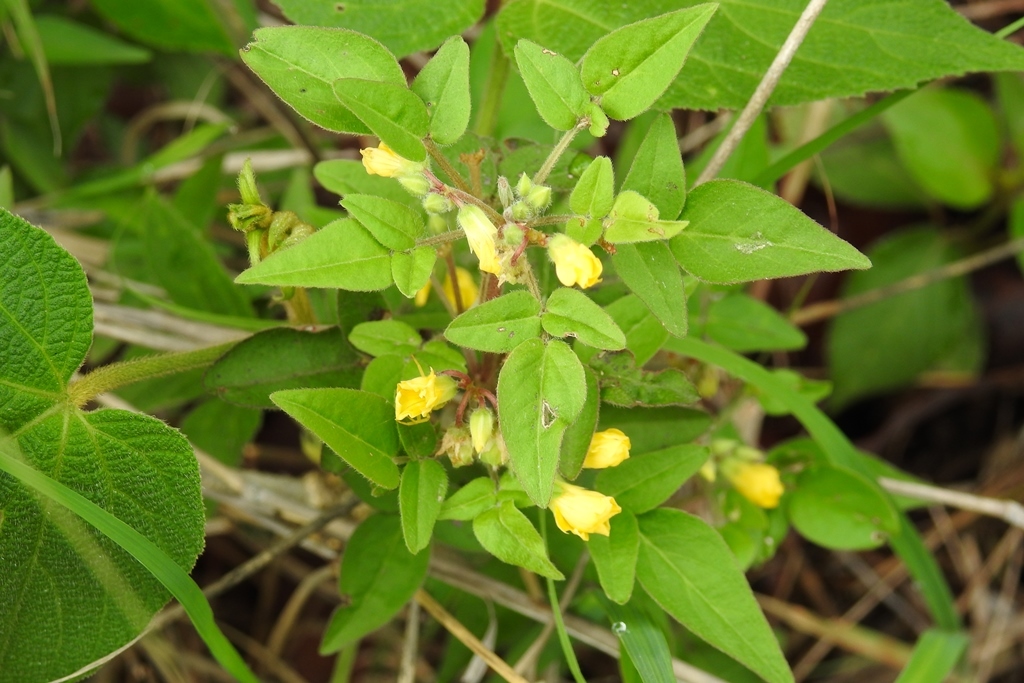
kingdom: Plantae
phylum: Tracheophyta
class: Magnoliopsida
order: Oxalidales
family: Oxalidaceae
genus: Oxalis
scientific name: Oxalis frutescens
